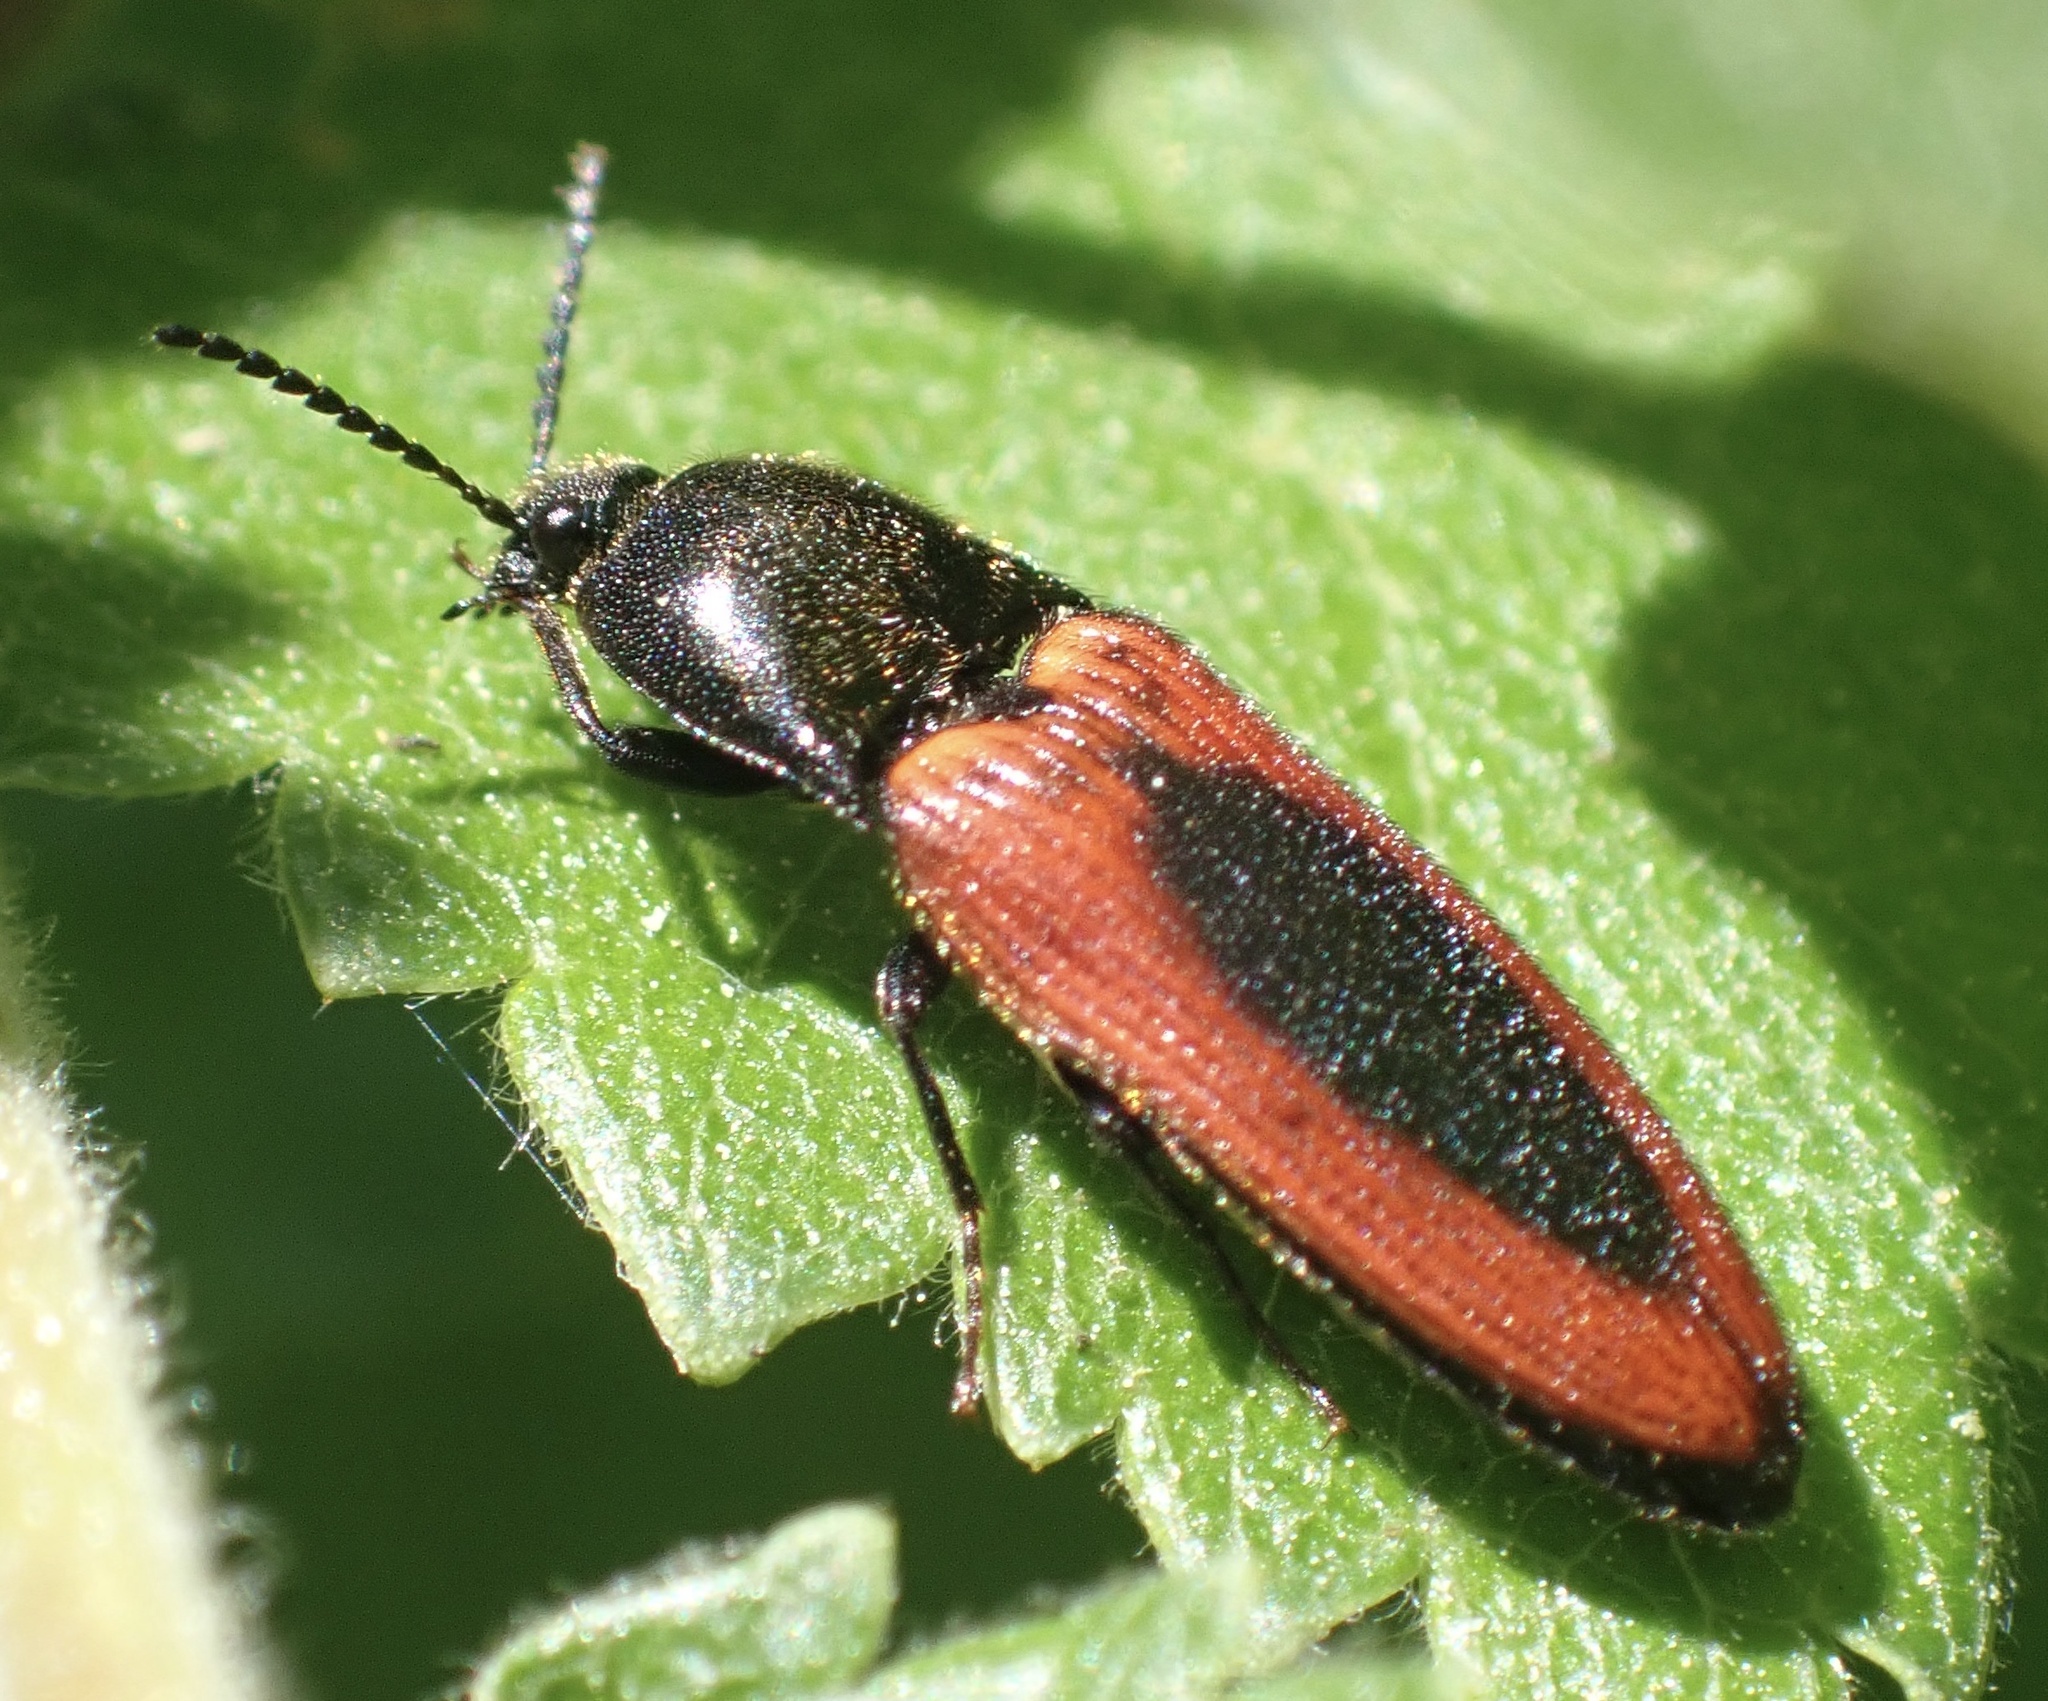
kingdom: Animalia
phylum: Arthropoda
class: Insecta
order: Coleoptera
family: Elateridae
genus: Ampedus
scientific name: Ampedus sanguinolentus
